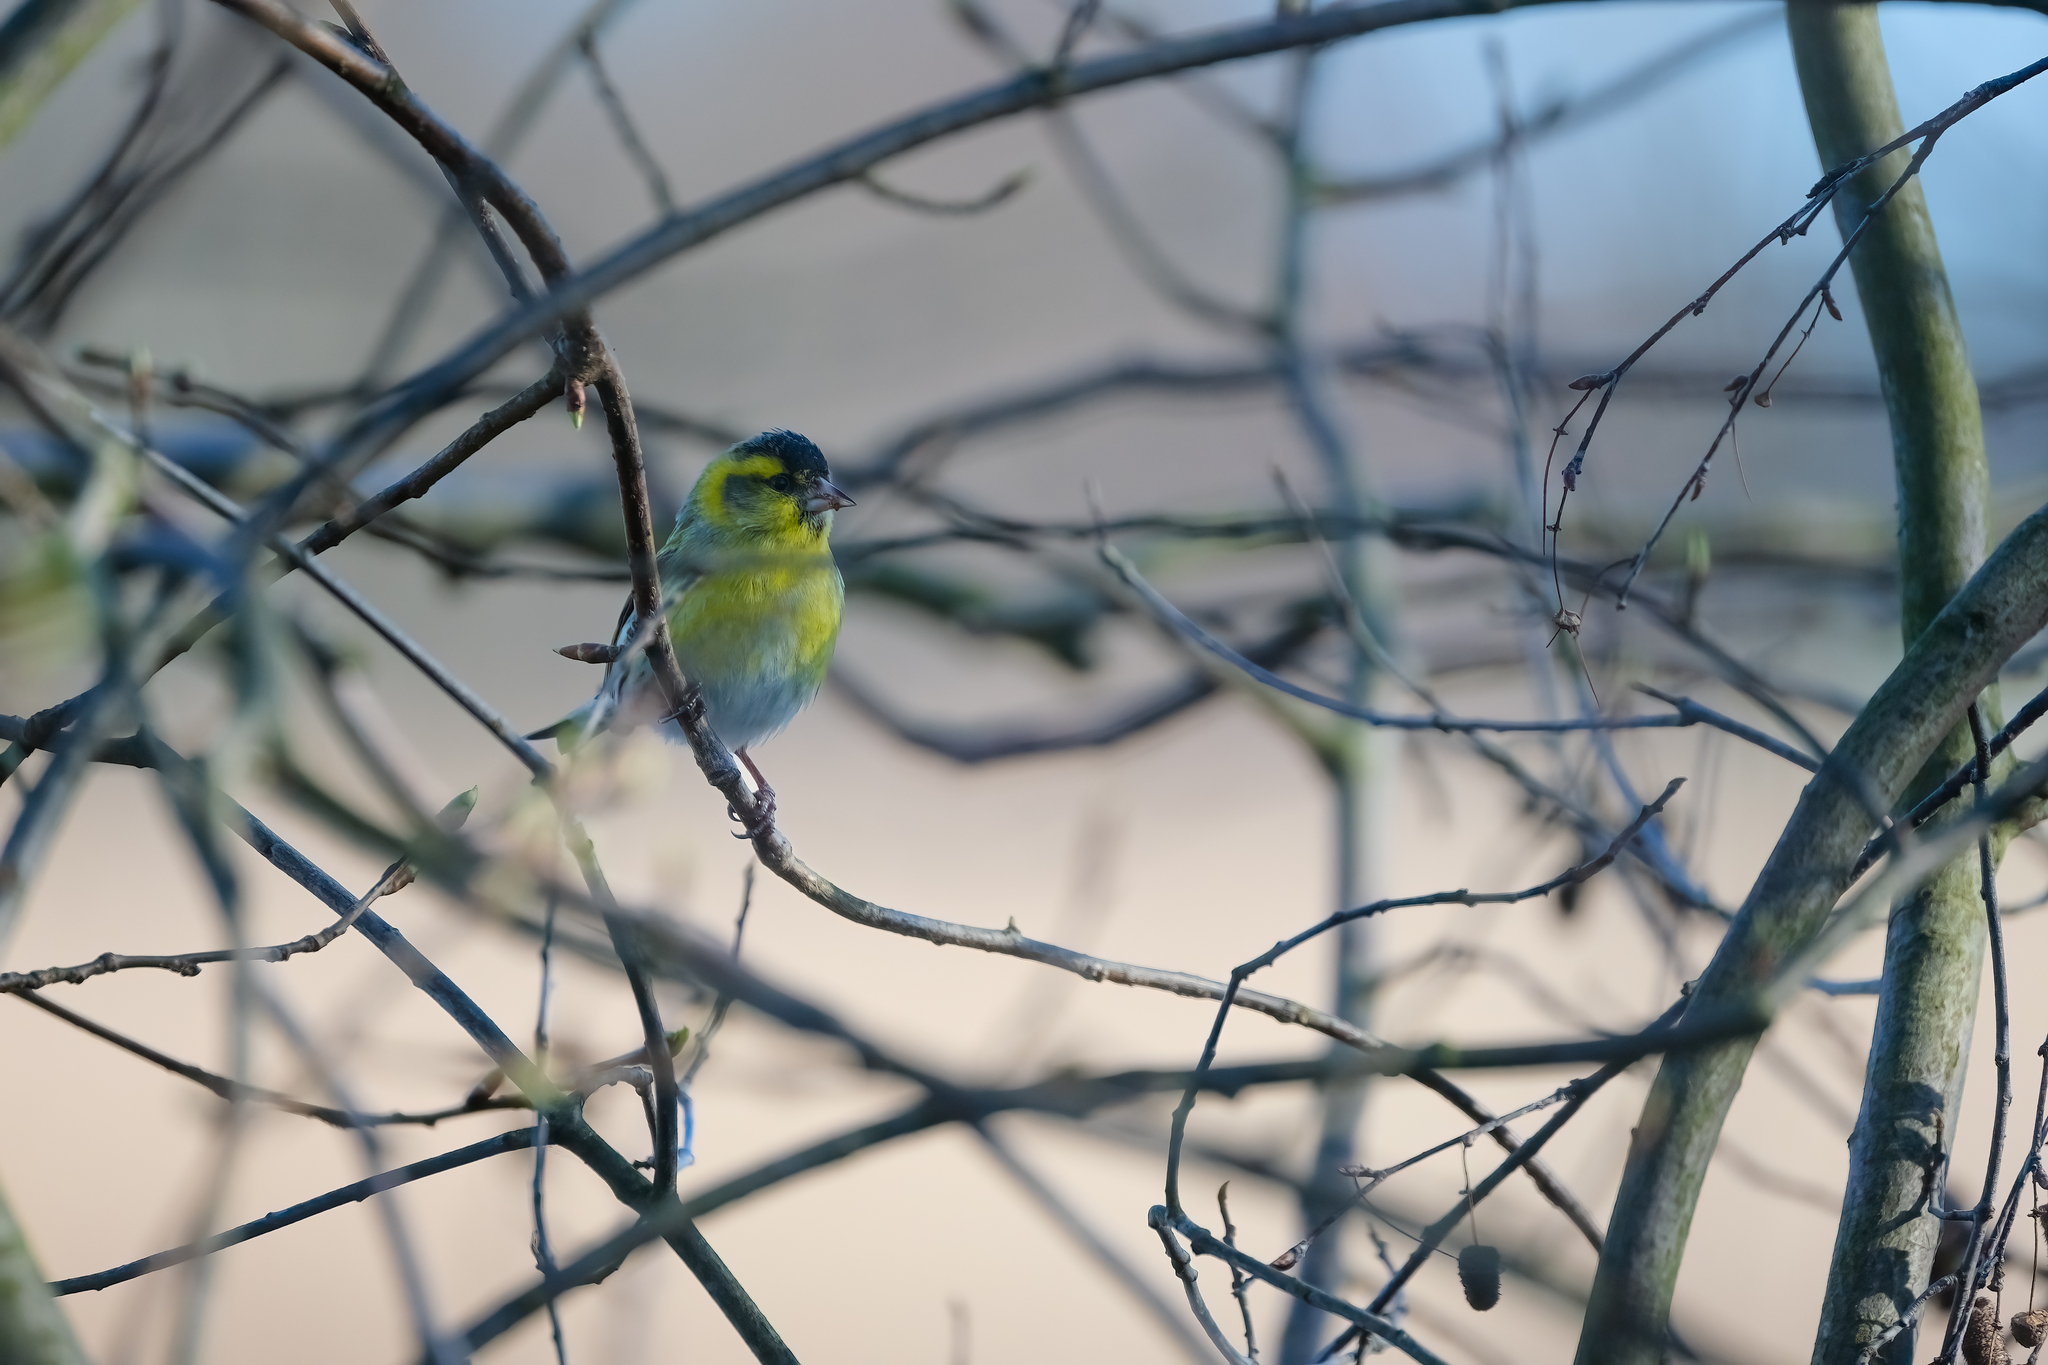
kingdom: Animalia
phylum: Chordata
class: Aves
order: Passeriformes
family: Fringillidae
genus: Spinus
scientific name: Spinus spinus
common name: Eurasian siskin
